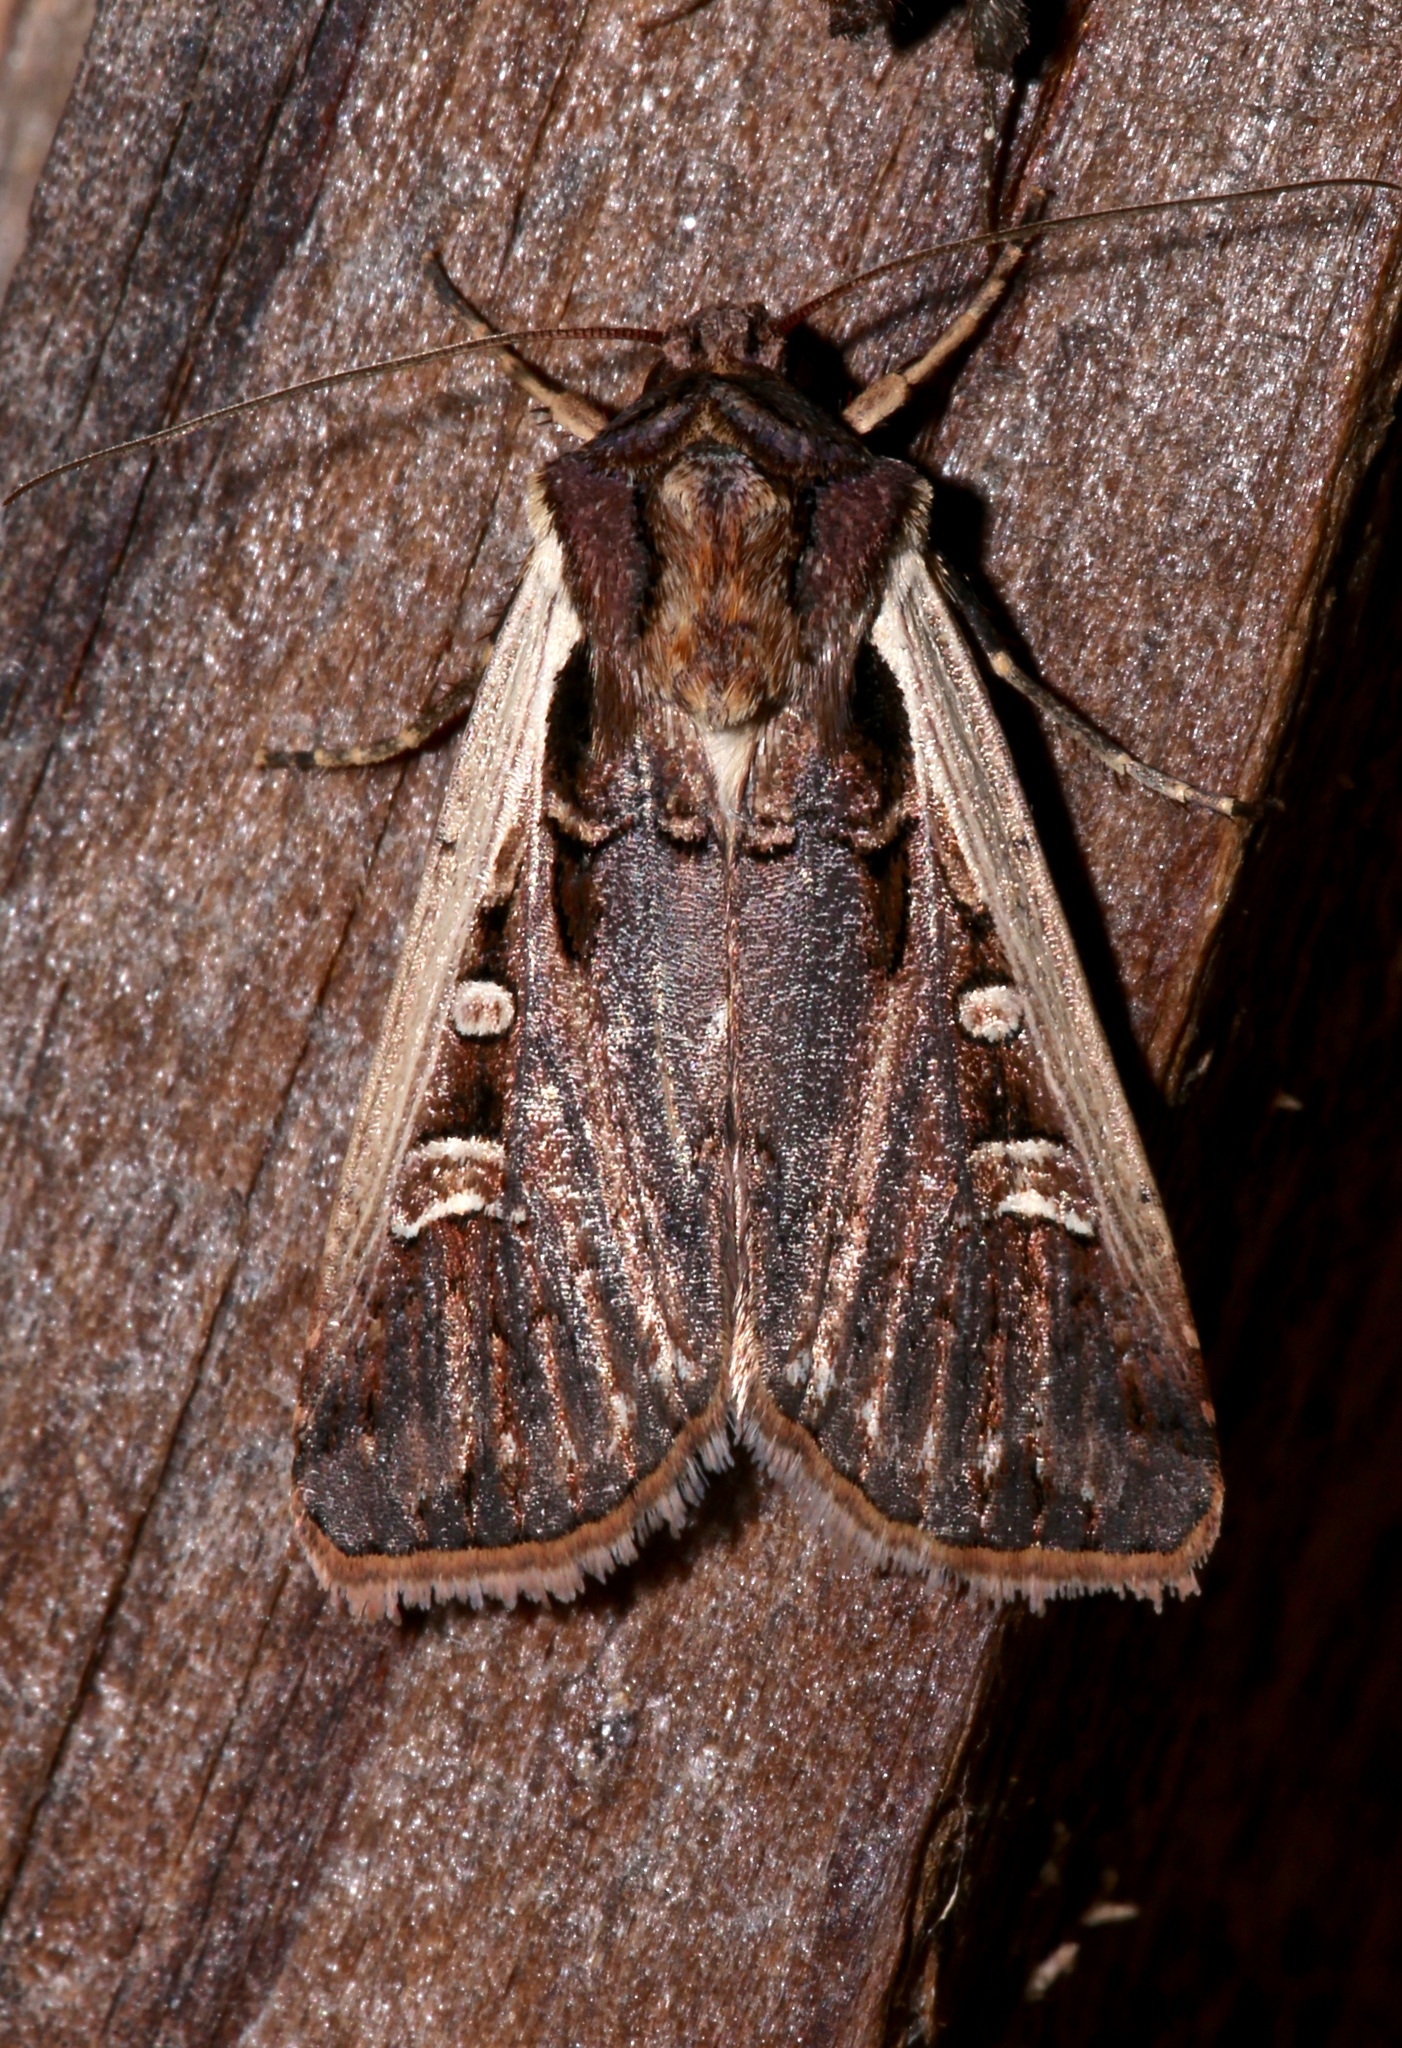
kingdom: Animalia
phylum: Arthropoda
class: Insecta
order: Lepidoptera
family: Noctuidae
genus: Striacosta
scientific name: Striacosta albicosta
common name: Western bean cutworm moth
